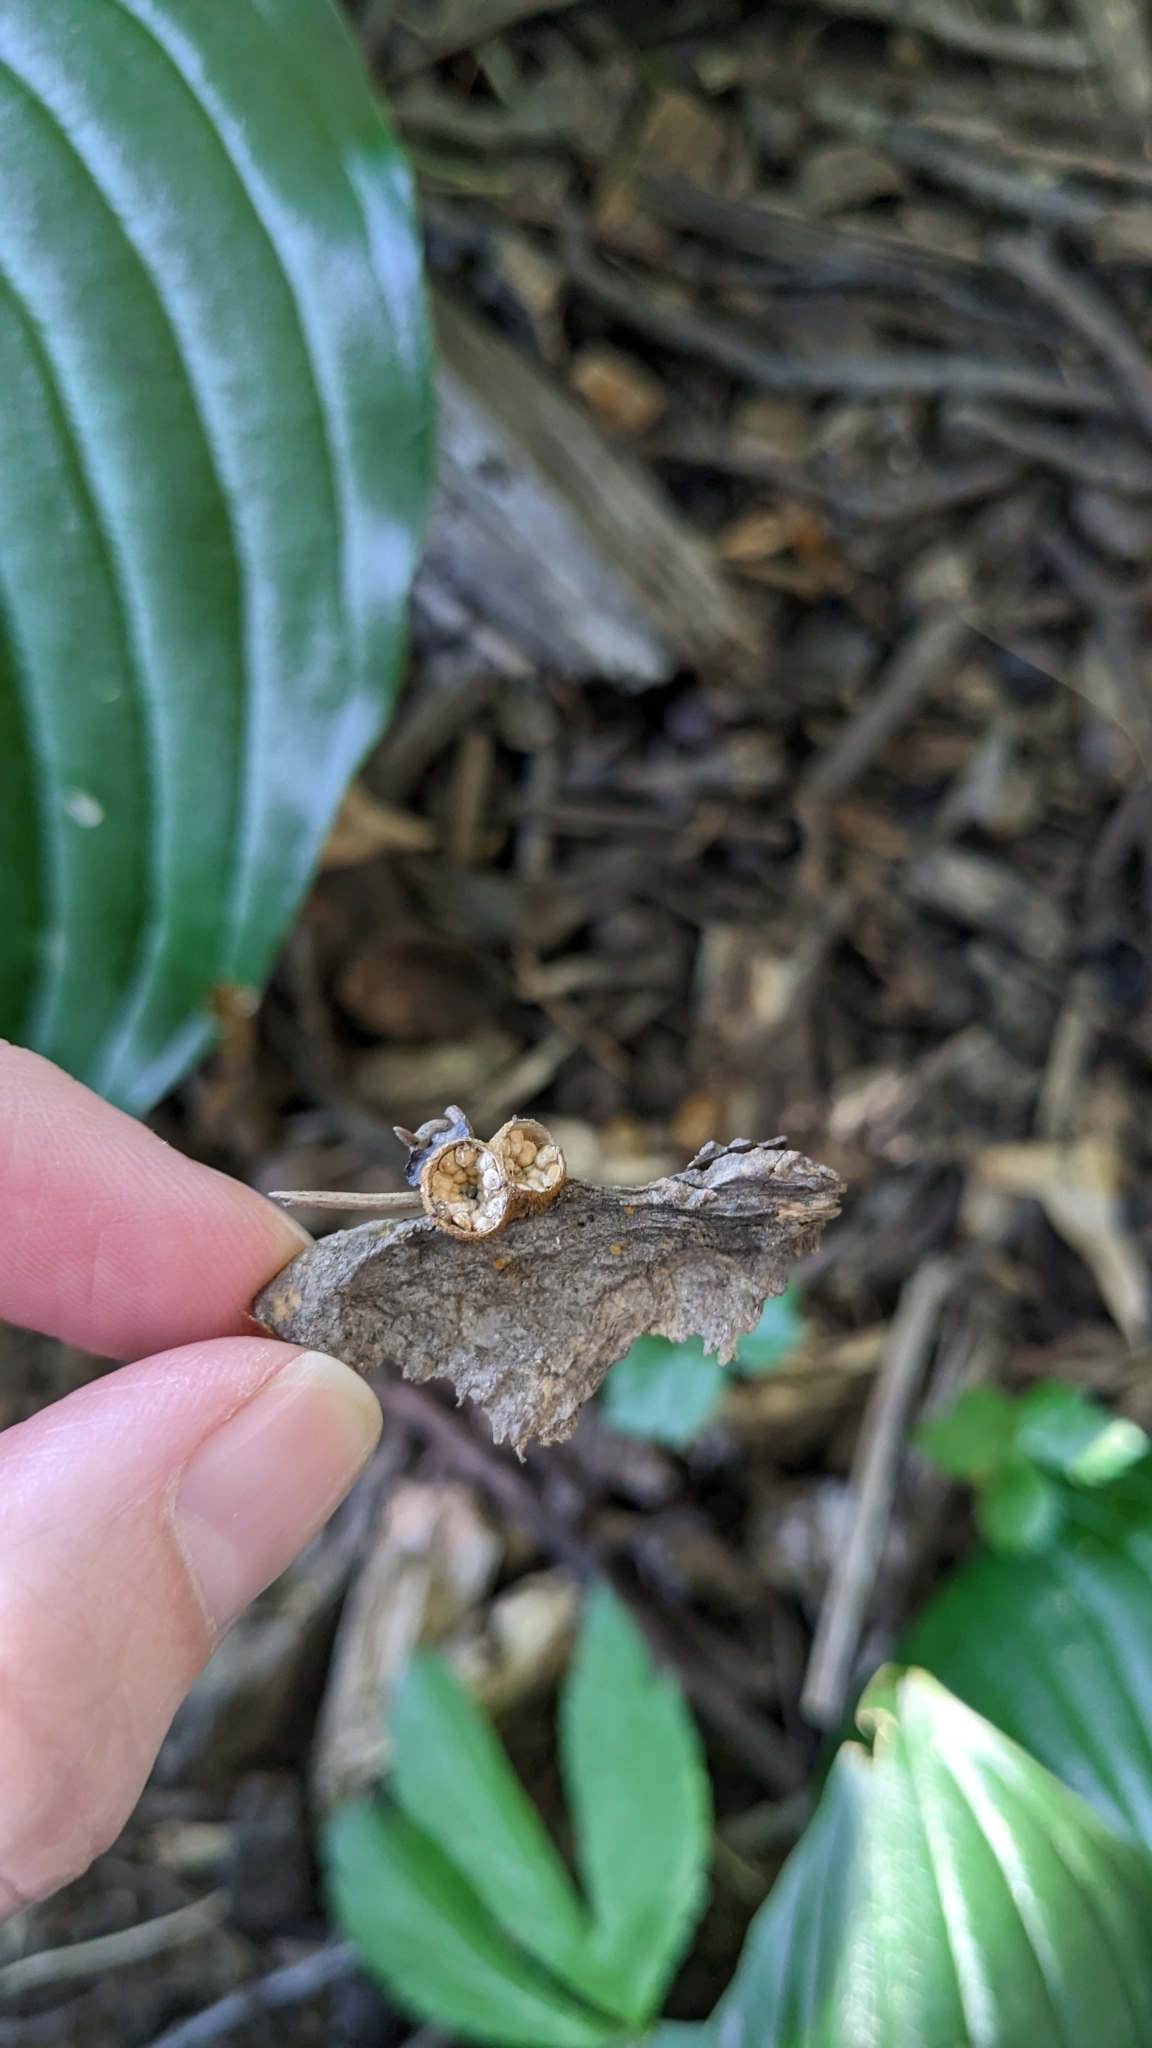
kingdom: Fungi
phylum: Basidiomycota
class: Agaricomycetes
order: Agaricales
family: Nidulariaceae
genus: Crucibulum
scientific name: Crucibulum parvulum
